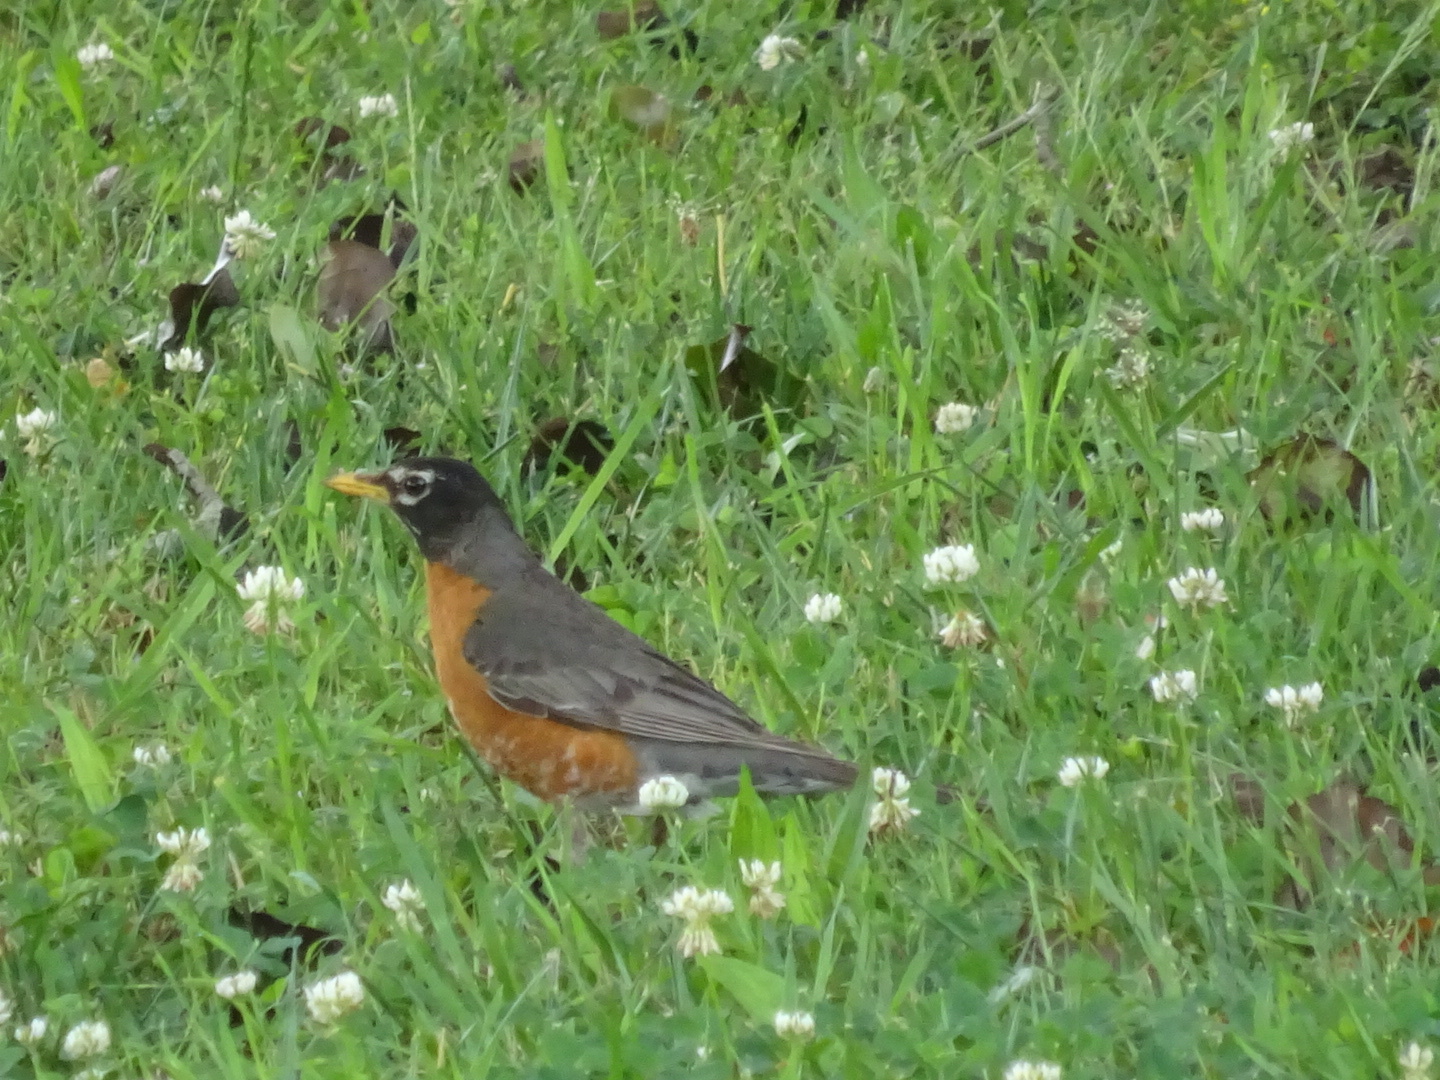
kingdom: Animalia
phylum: Chordata
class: Aves
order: Passeriformes
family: Turdidae
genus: Turdus
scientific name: Turdus migratorius
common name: American robin
